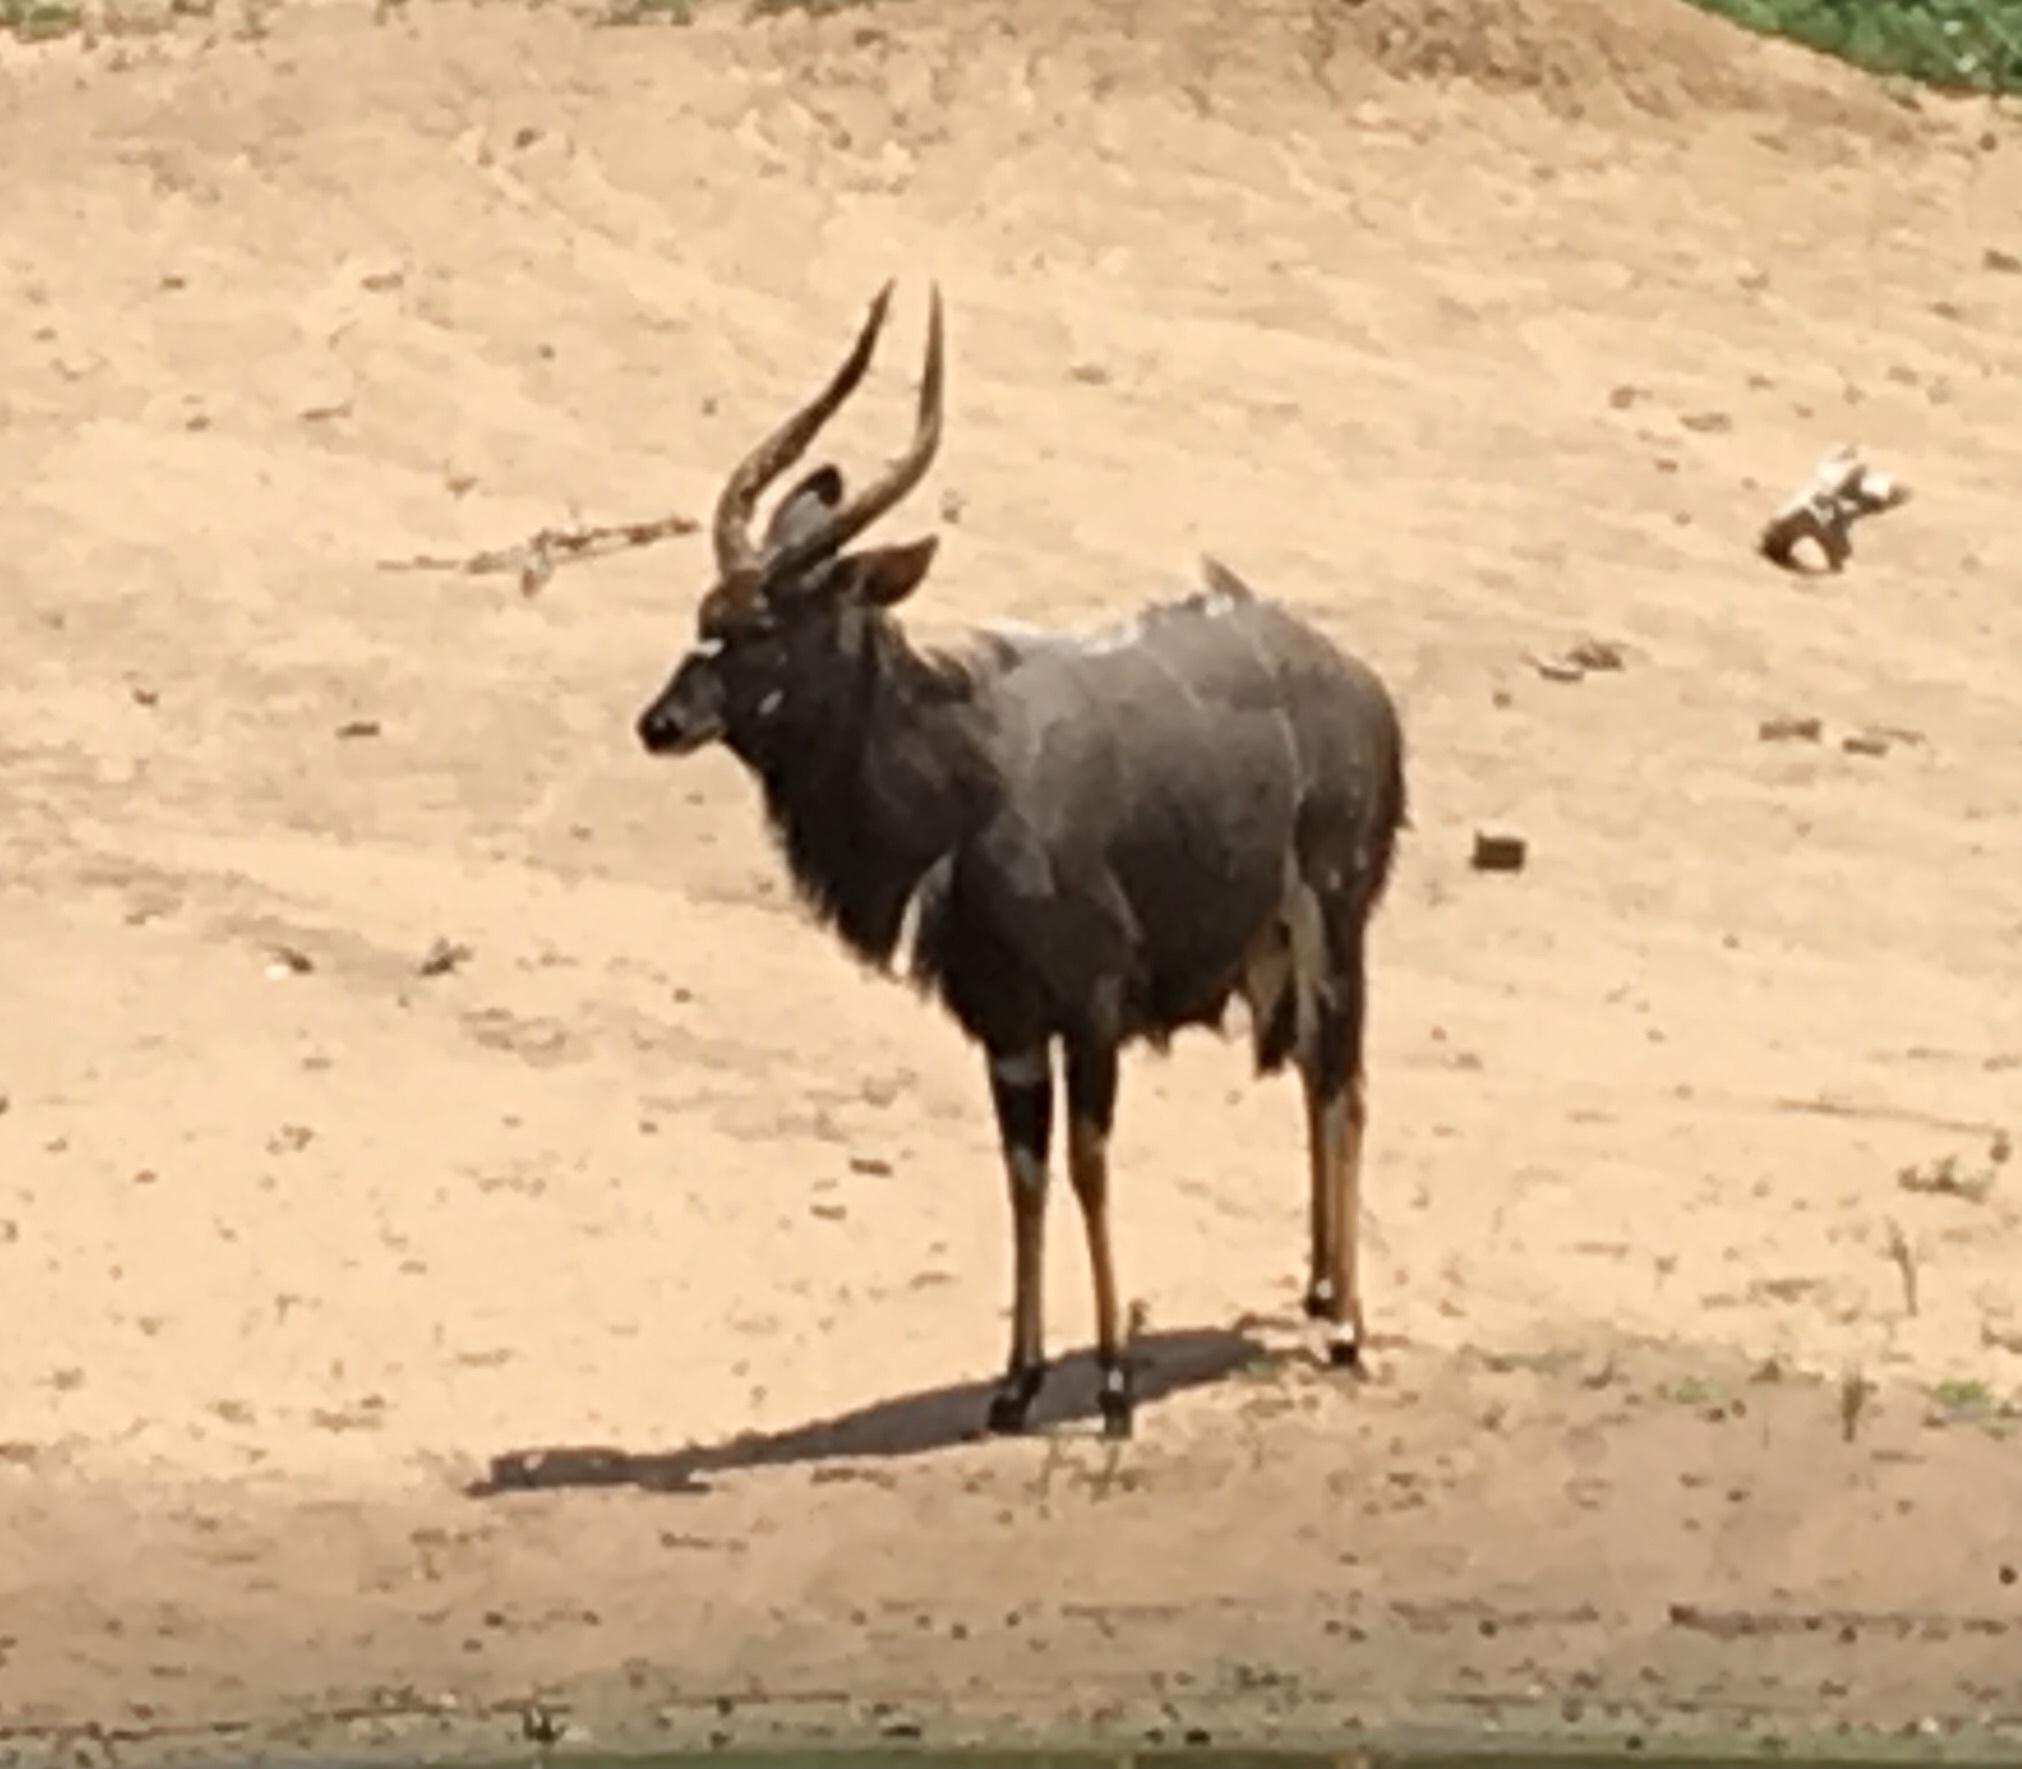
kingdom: Animalia
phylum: Chordata
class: Mammalia
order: Artiodactyla
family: Bovidae
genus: Tragelaphus
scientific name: Tragelaphus angasii
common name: Nyala
